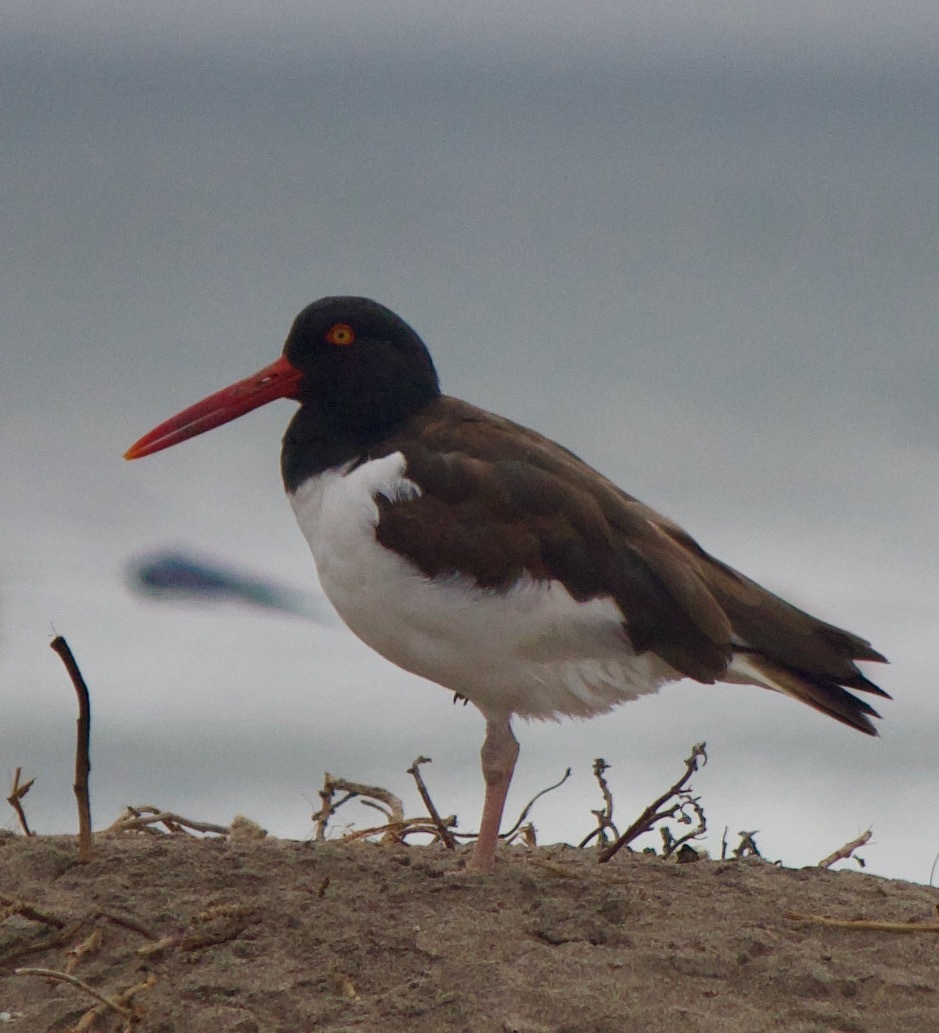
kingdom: Animalia
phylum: Chordata
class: Aves
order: Charadriiformes
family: Haematopodidae
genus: Haematopus
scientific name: Haematopus palliatus
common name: American oystercatcher
